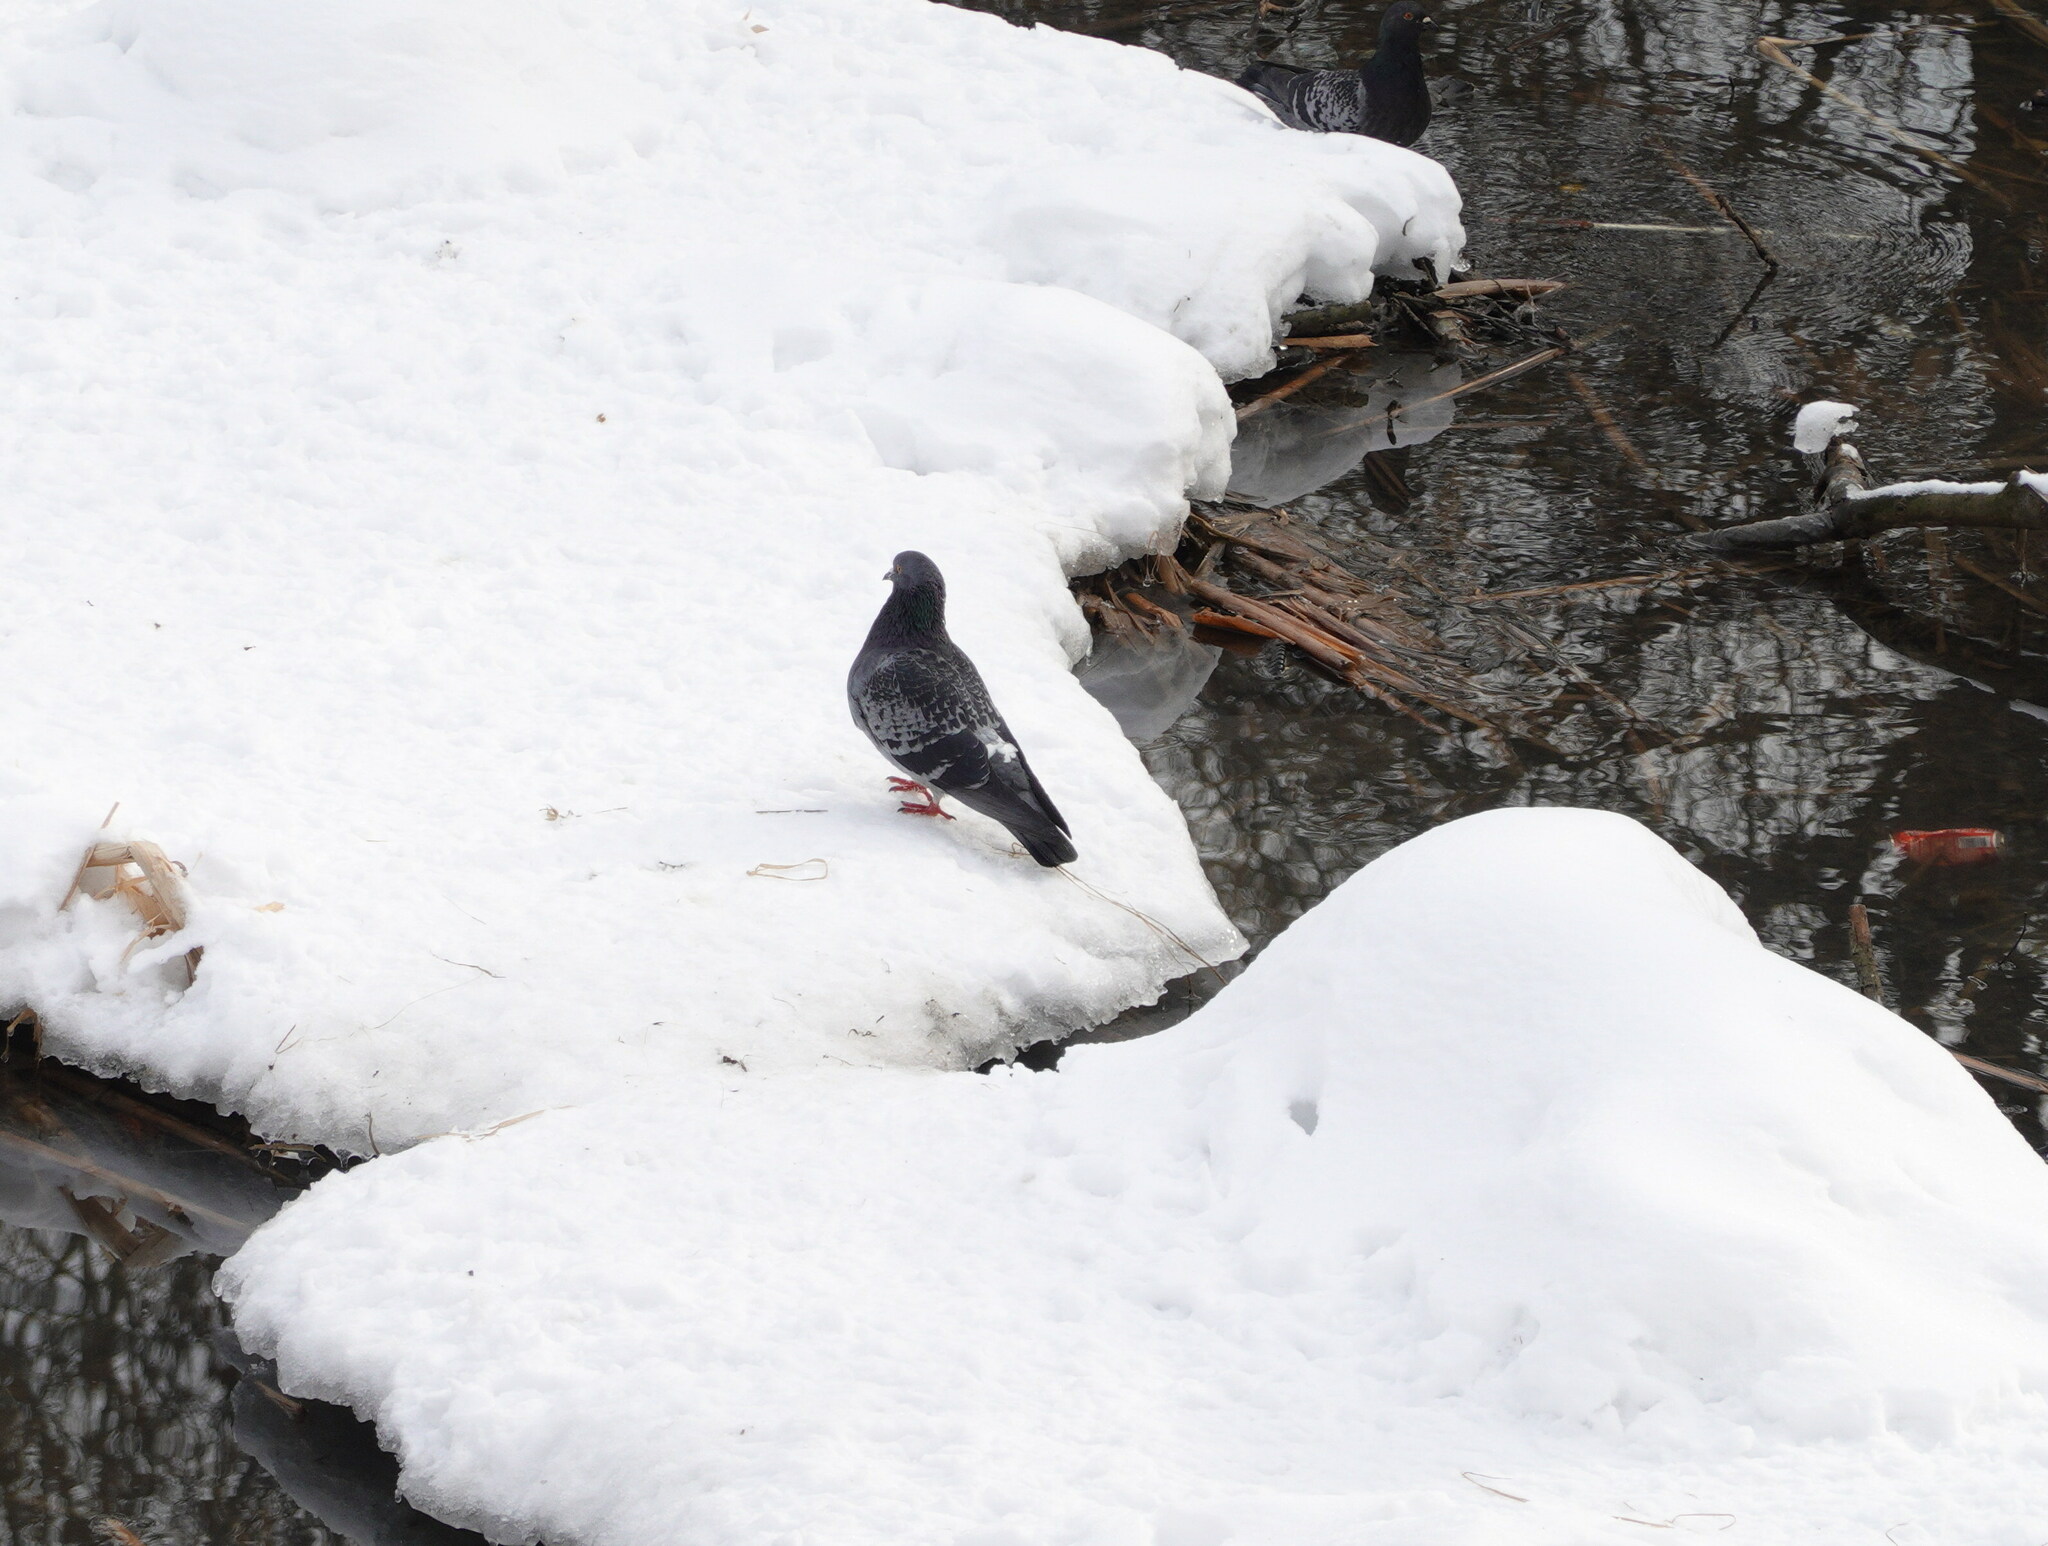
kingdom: Animalia
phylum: Chordata
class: Aves
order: Columbiformes
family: Columbidae
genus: Columba
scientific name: Columba livia
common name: Rock pigeon
